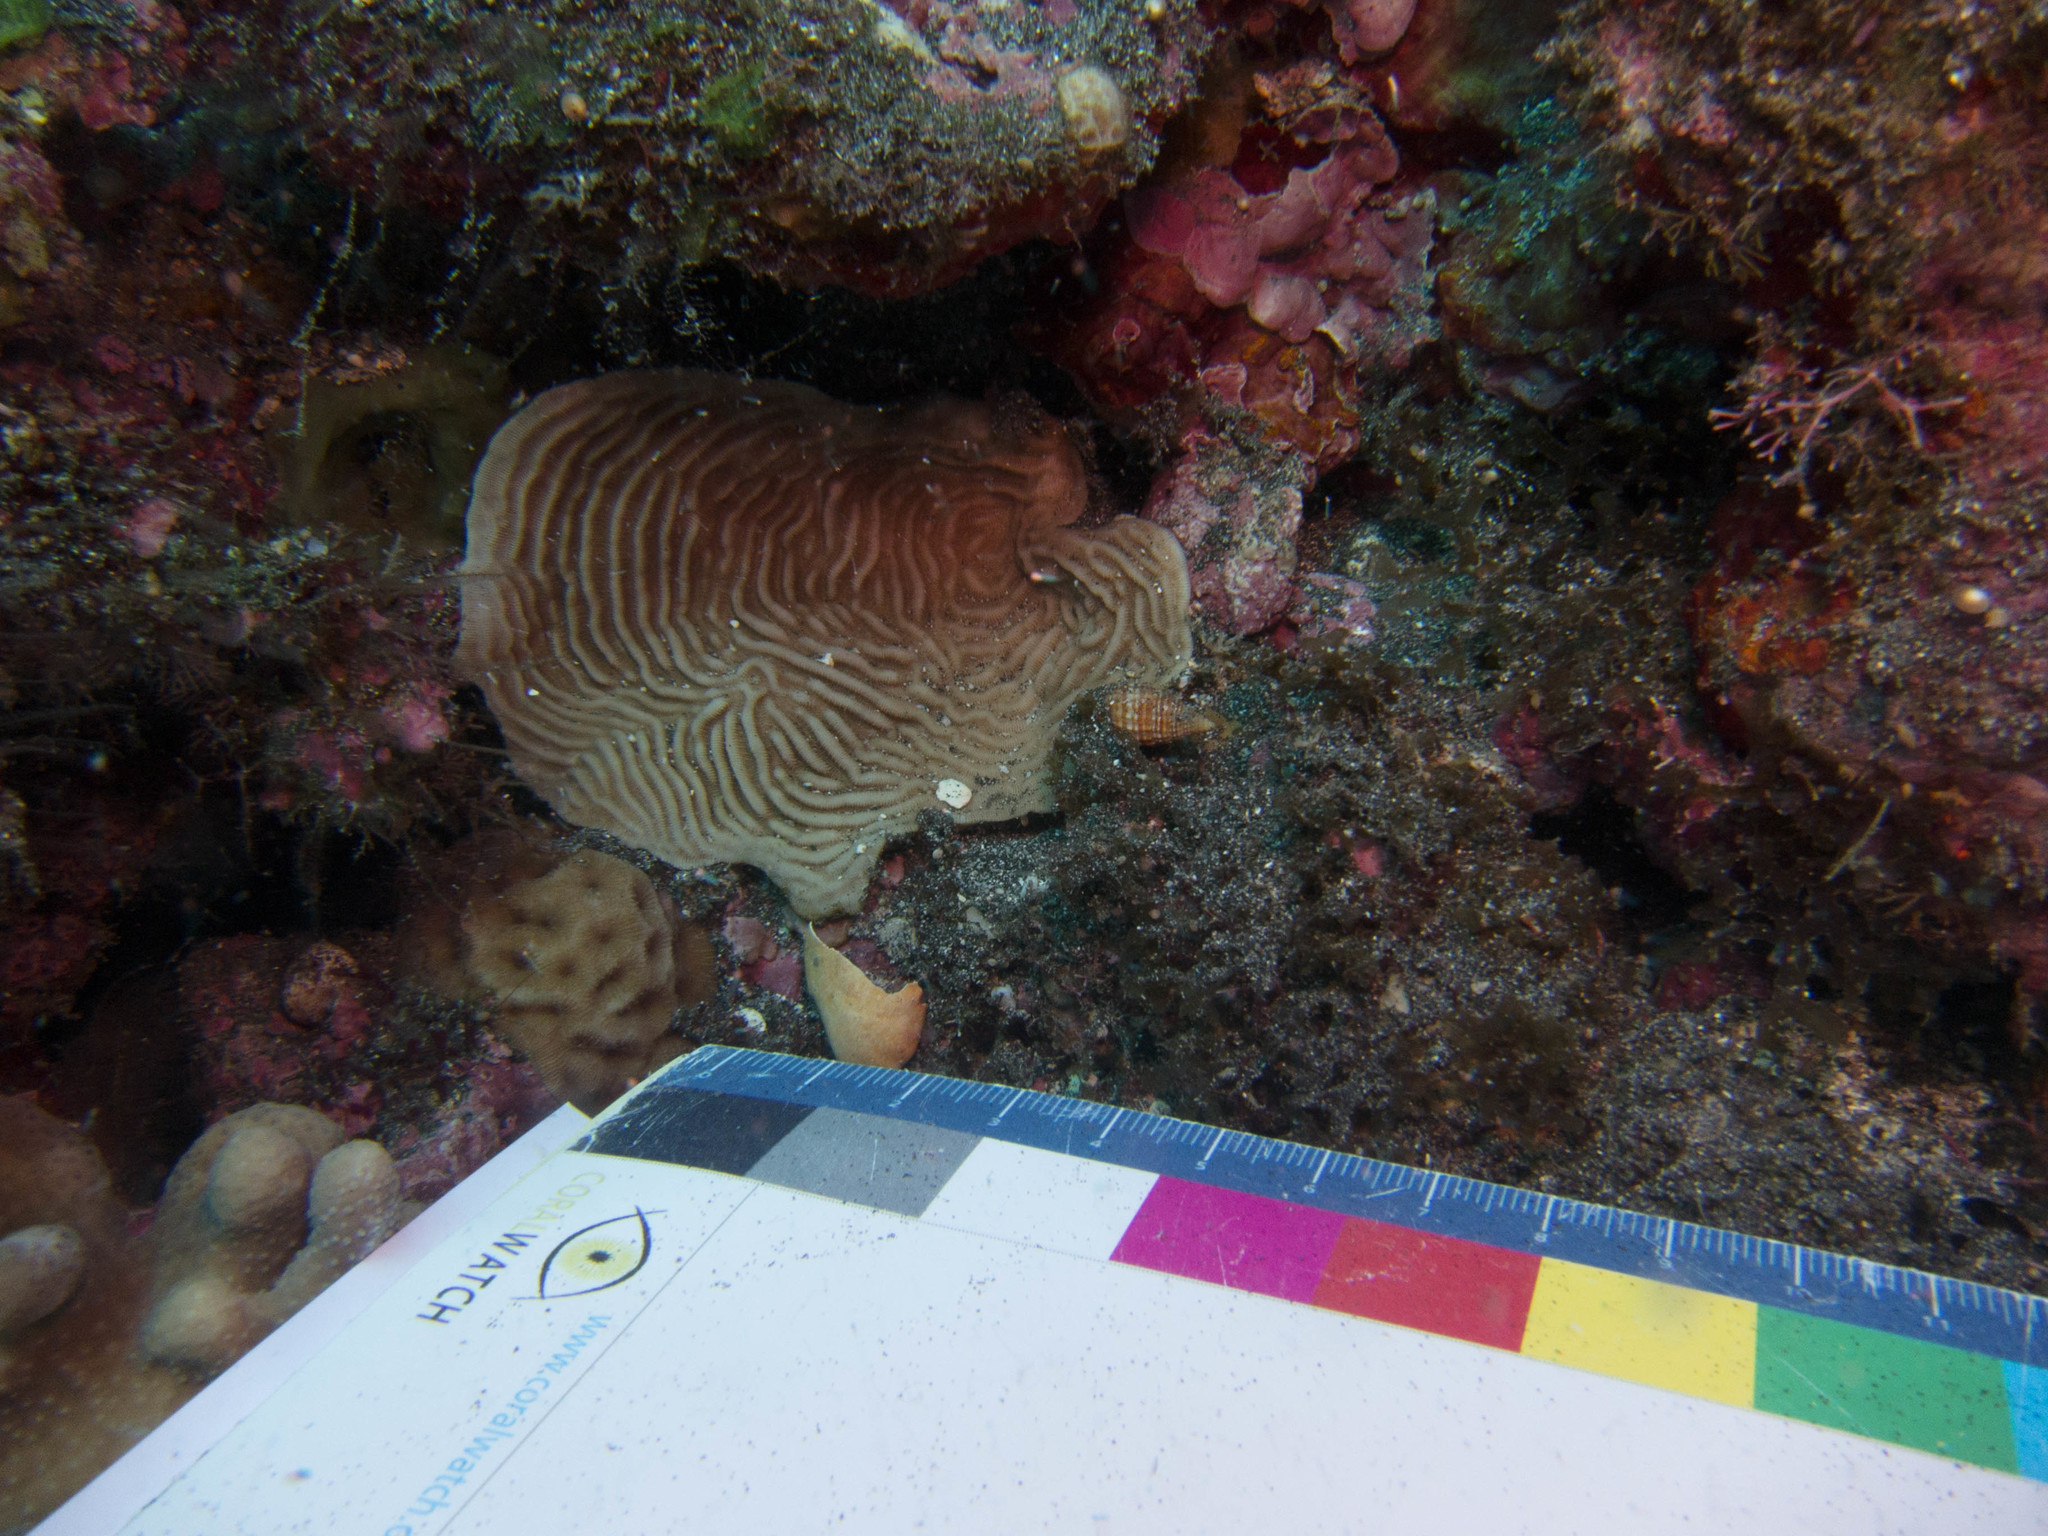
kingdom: Animalia
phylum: Cnidaria
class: Anthozoa
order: Scleractinia
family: Pachyseridae
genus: Pachyseris
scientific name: Pachyseris speciosa
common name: Serpent coral
